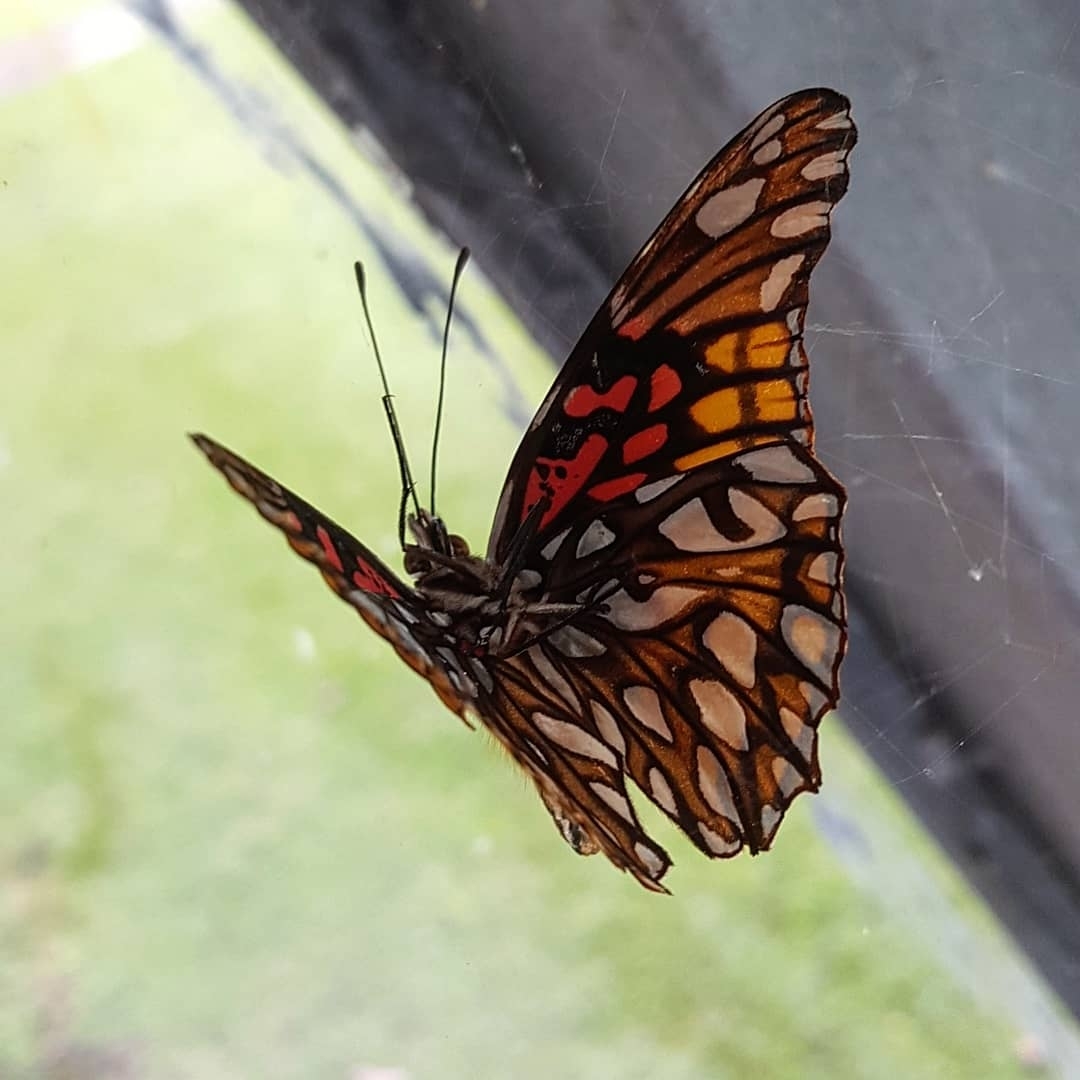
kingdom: Animalia
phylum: Arthropoda
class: Insecta
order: Lepidoptera
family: Nymphalidae
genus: Dione
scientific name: Dione moneta
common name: Mexican silverspot
